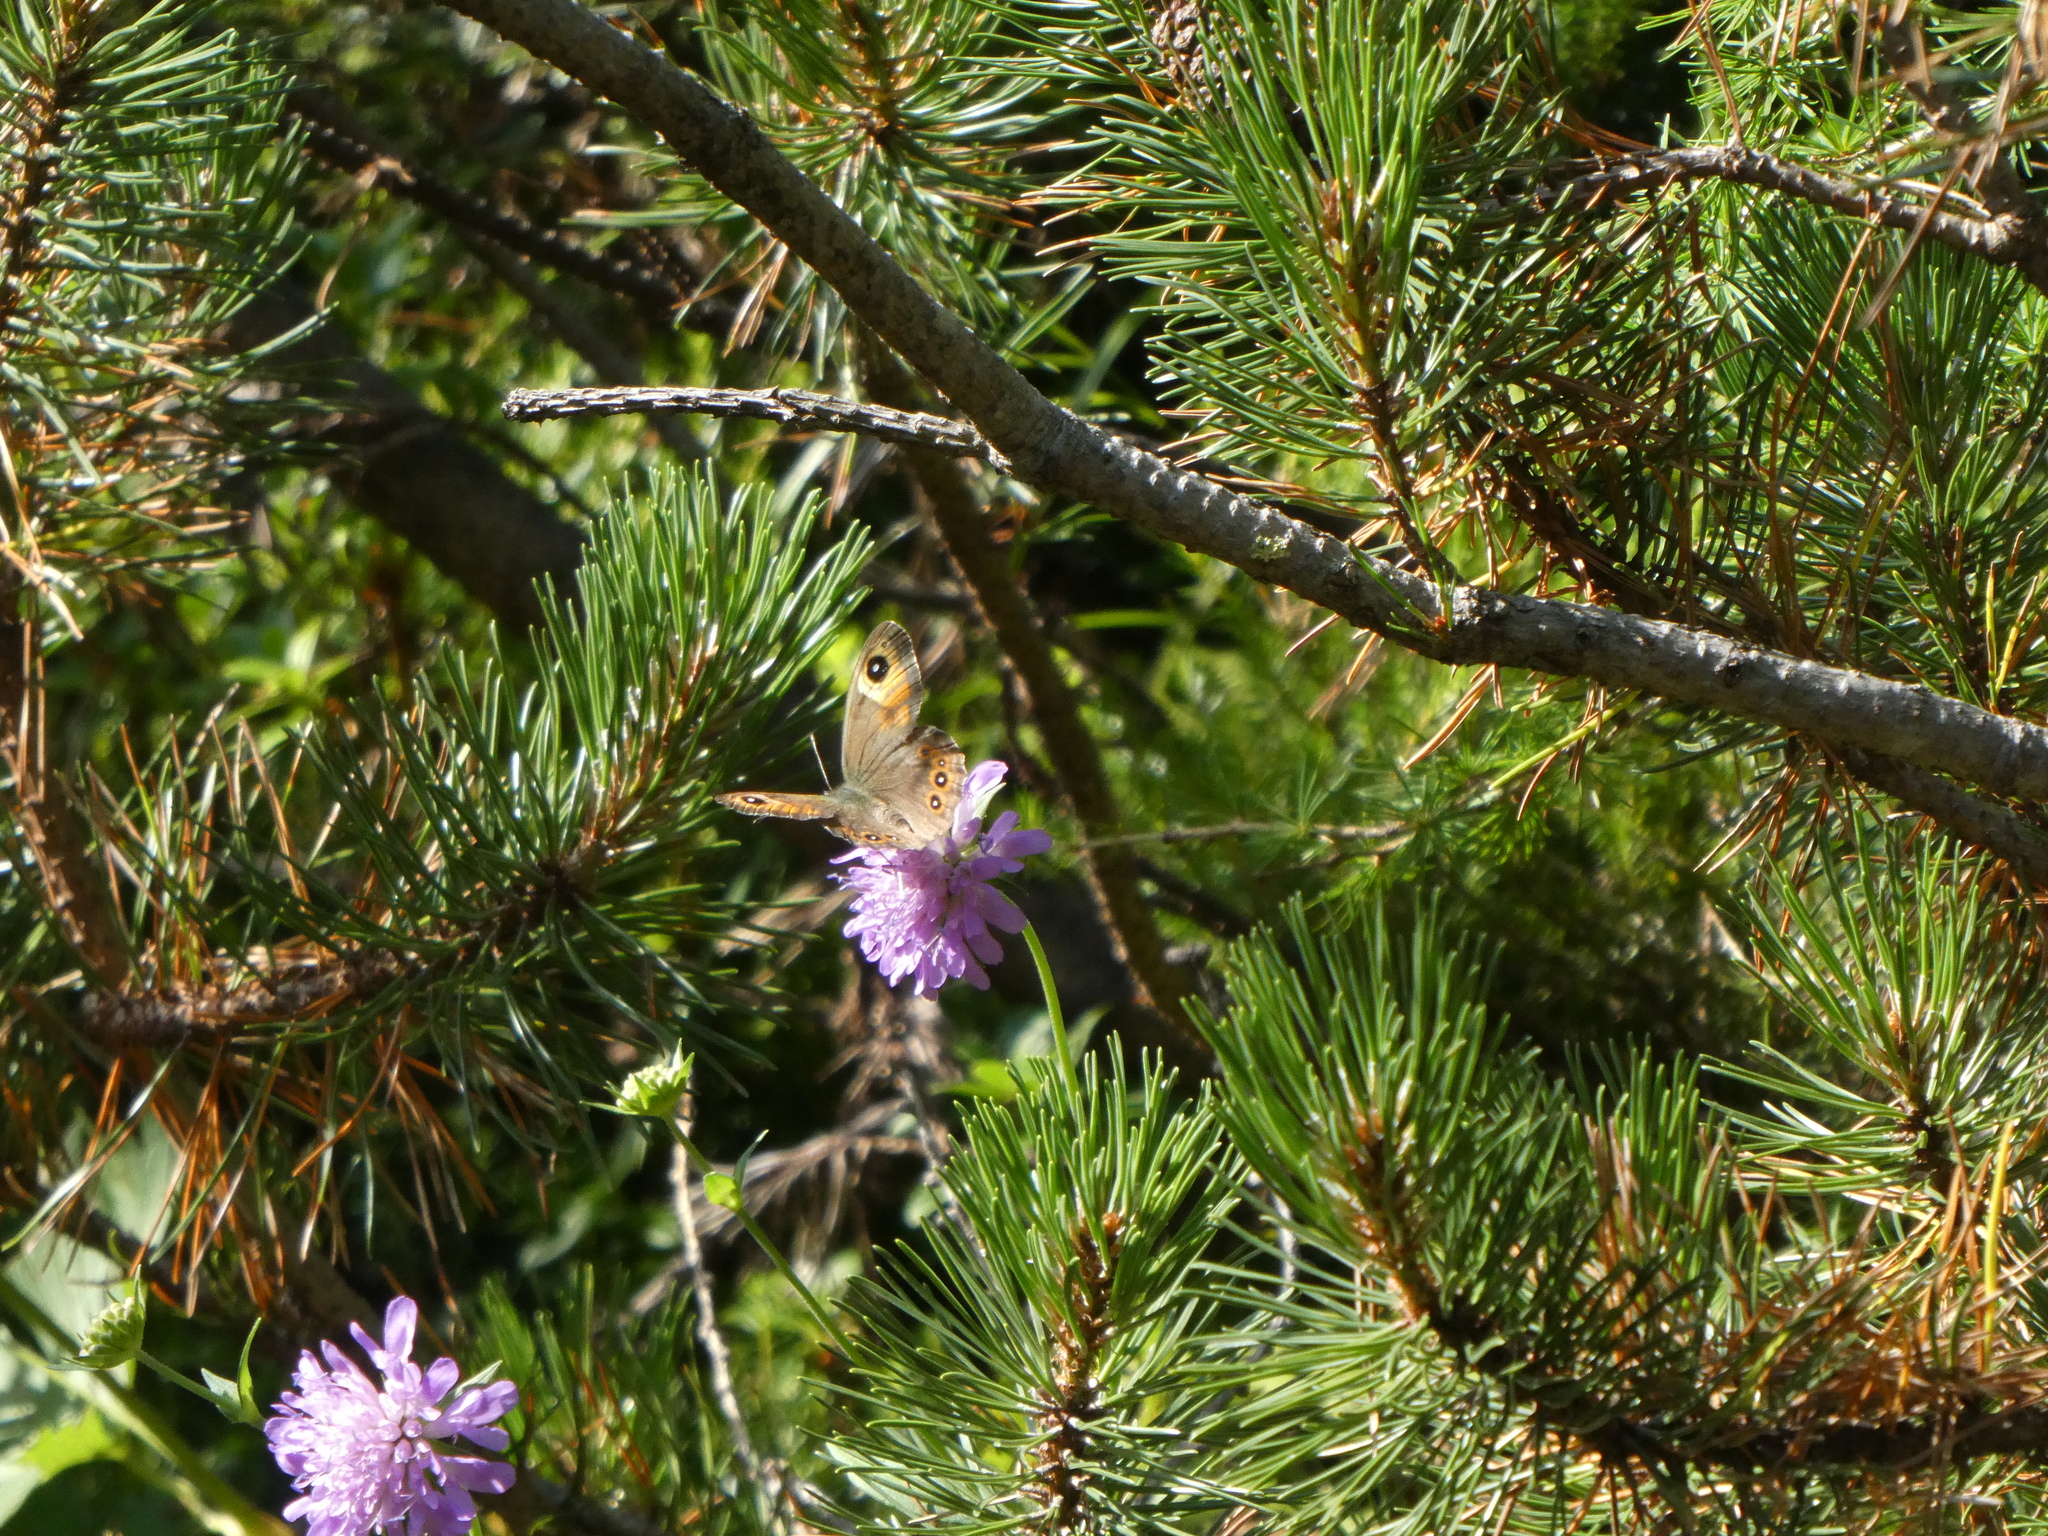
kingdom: Animalia
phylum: Arthropoda
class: Insecta
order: Lepidoptera
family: Nymphalidae
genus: Pararge
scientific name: Pararge Lasiommata maera
